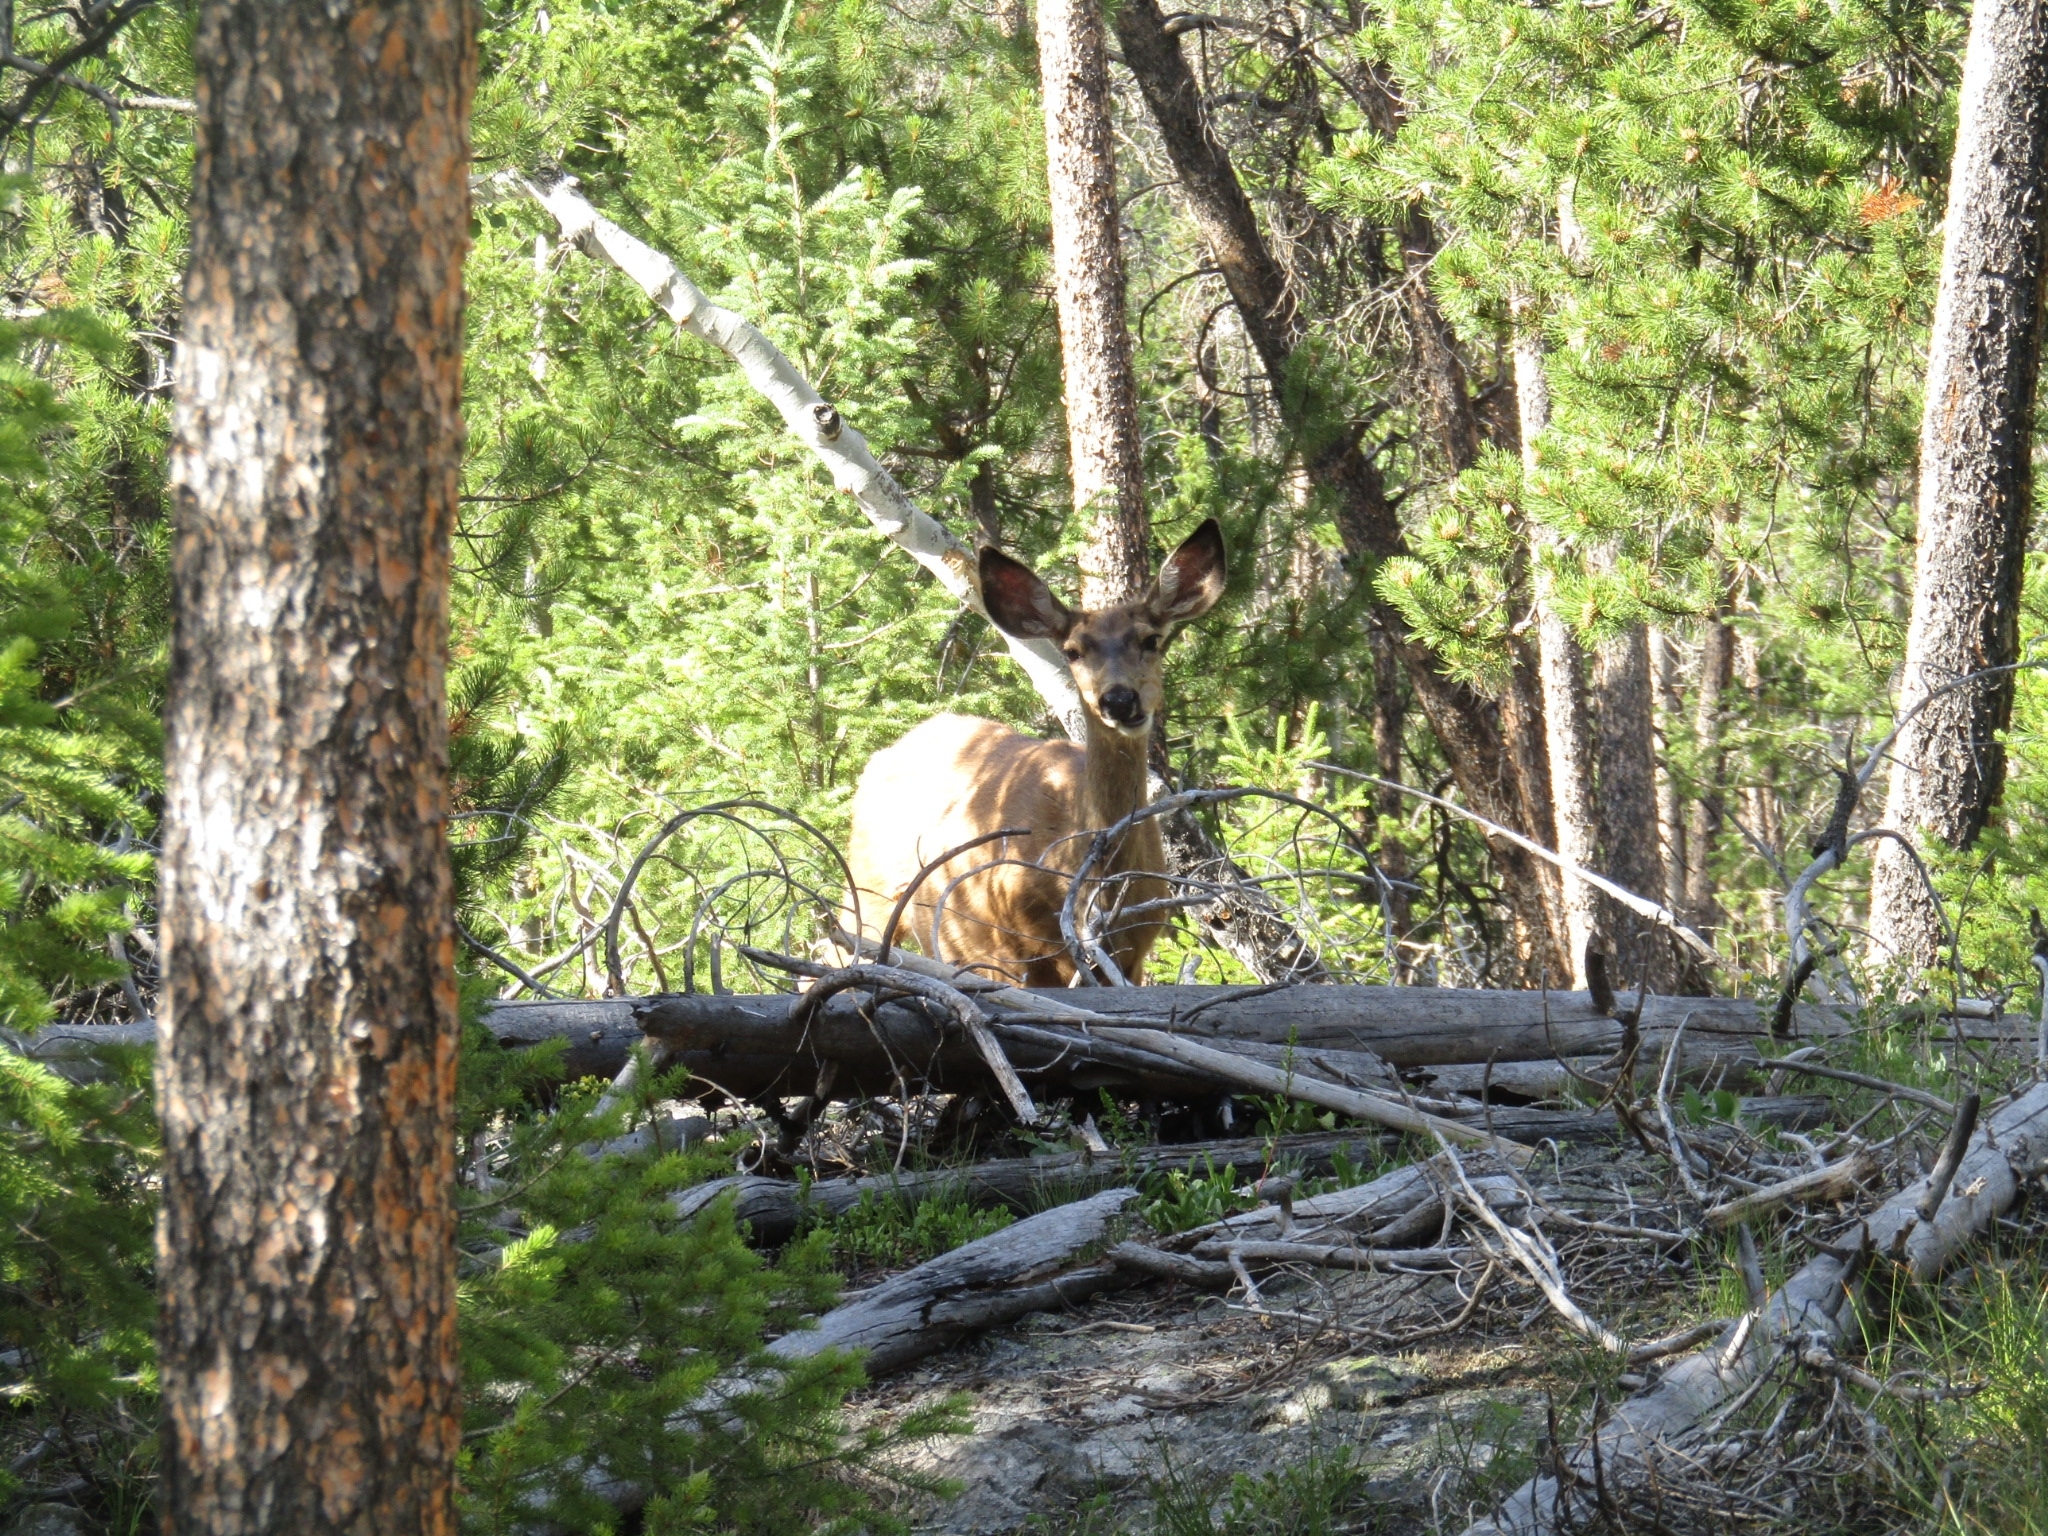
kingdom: Animalia
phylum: Chordata
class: Mammalia
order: Artiodactyla
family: Cervidae
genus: Odocoileus
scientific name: Odocoileus hemionus
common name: Mule deer
